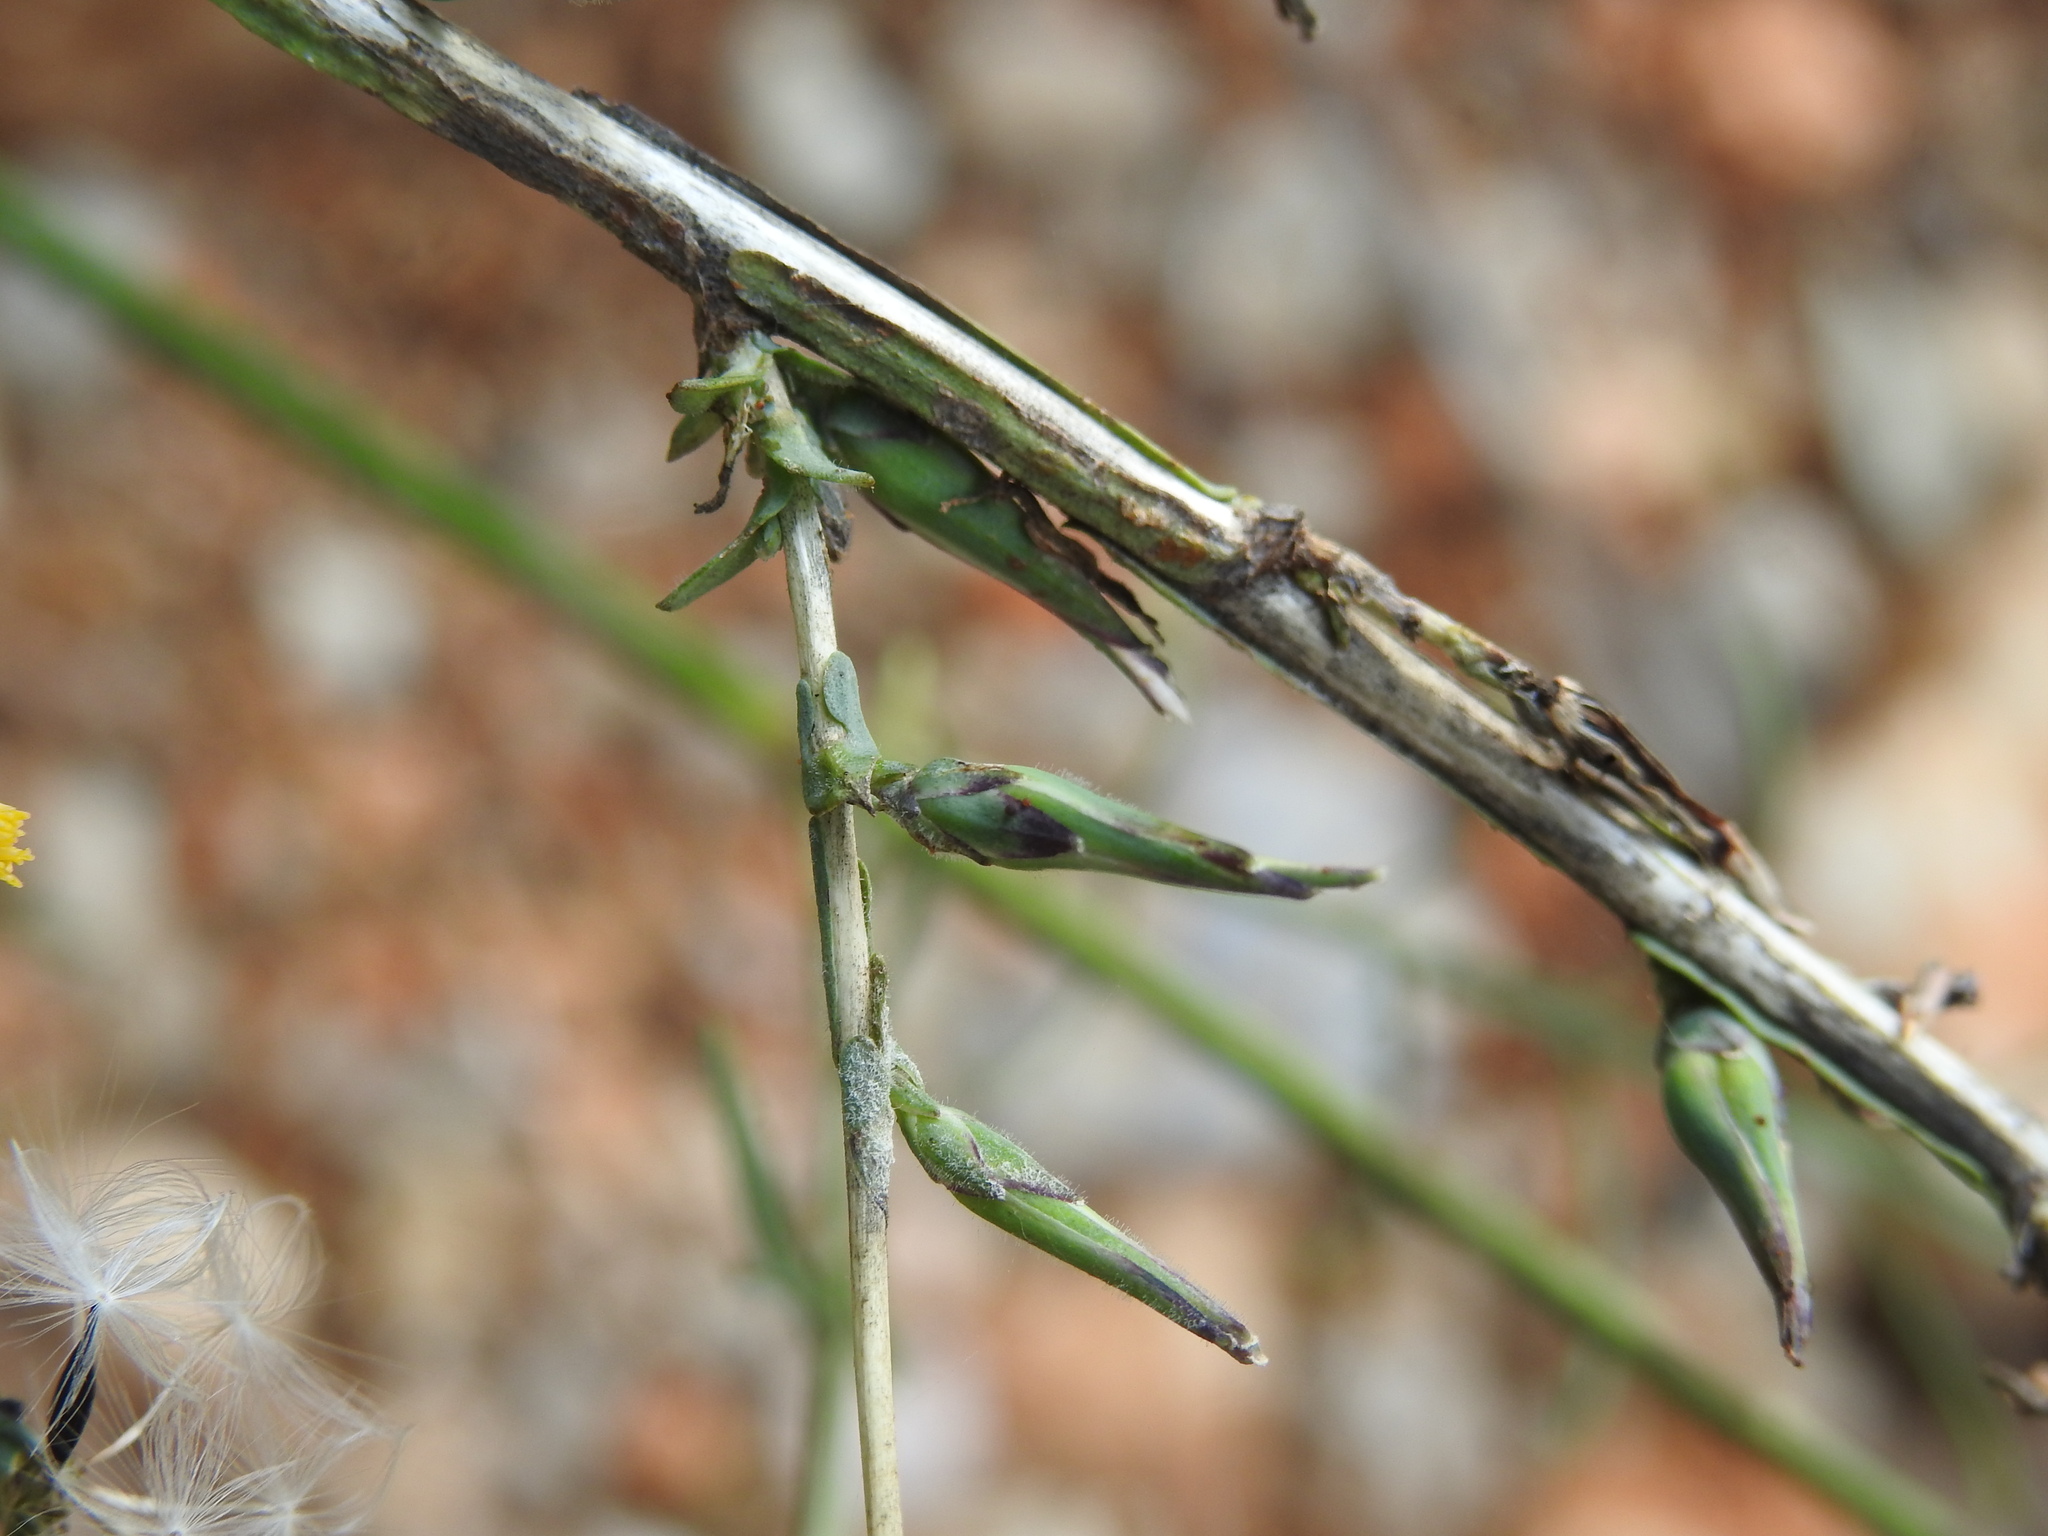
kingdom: Plantae
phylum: Tracheophyta
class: Magnoliopsida
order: Asterales
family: Asteraceae
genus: Lactuca
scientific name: Lactuca viminea
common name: Pliant lettuce
